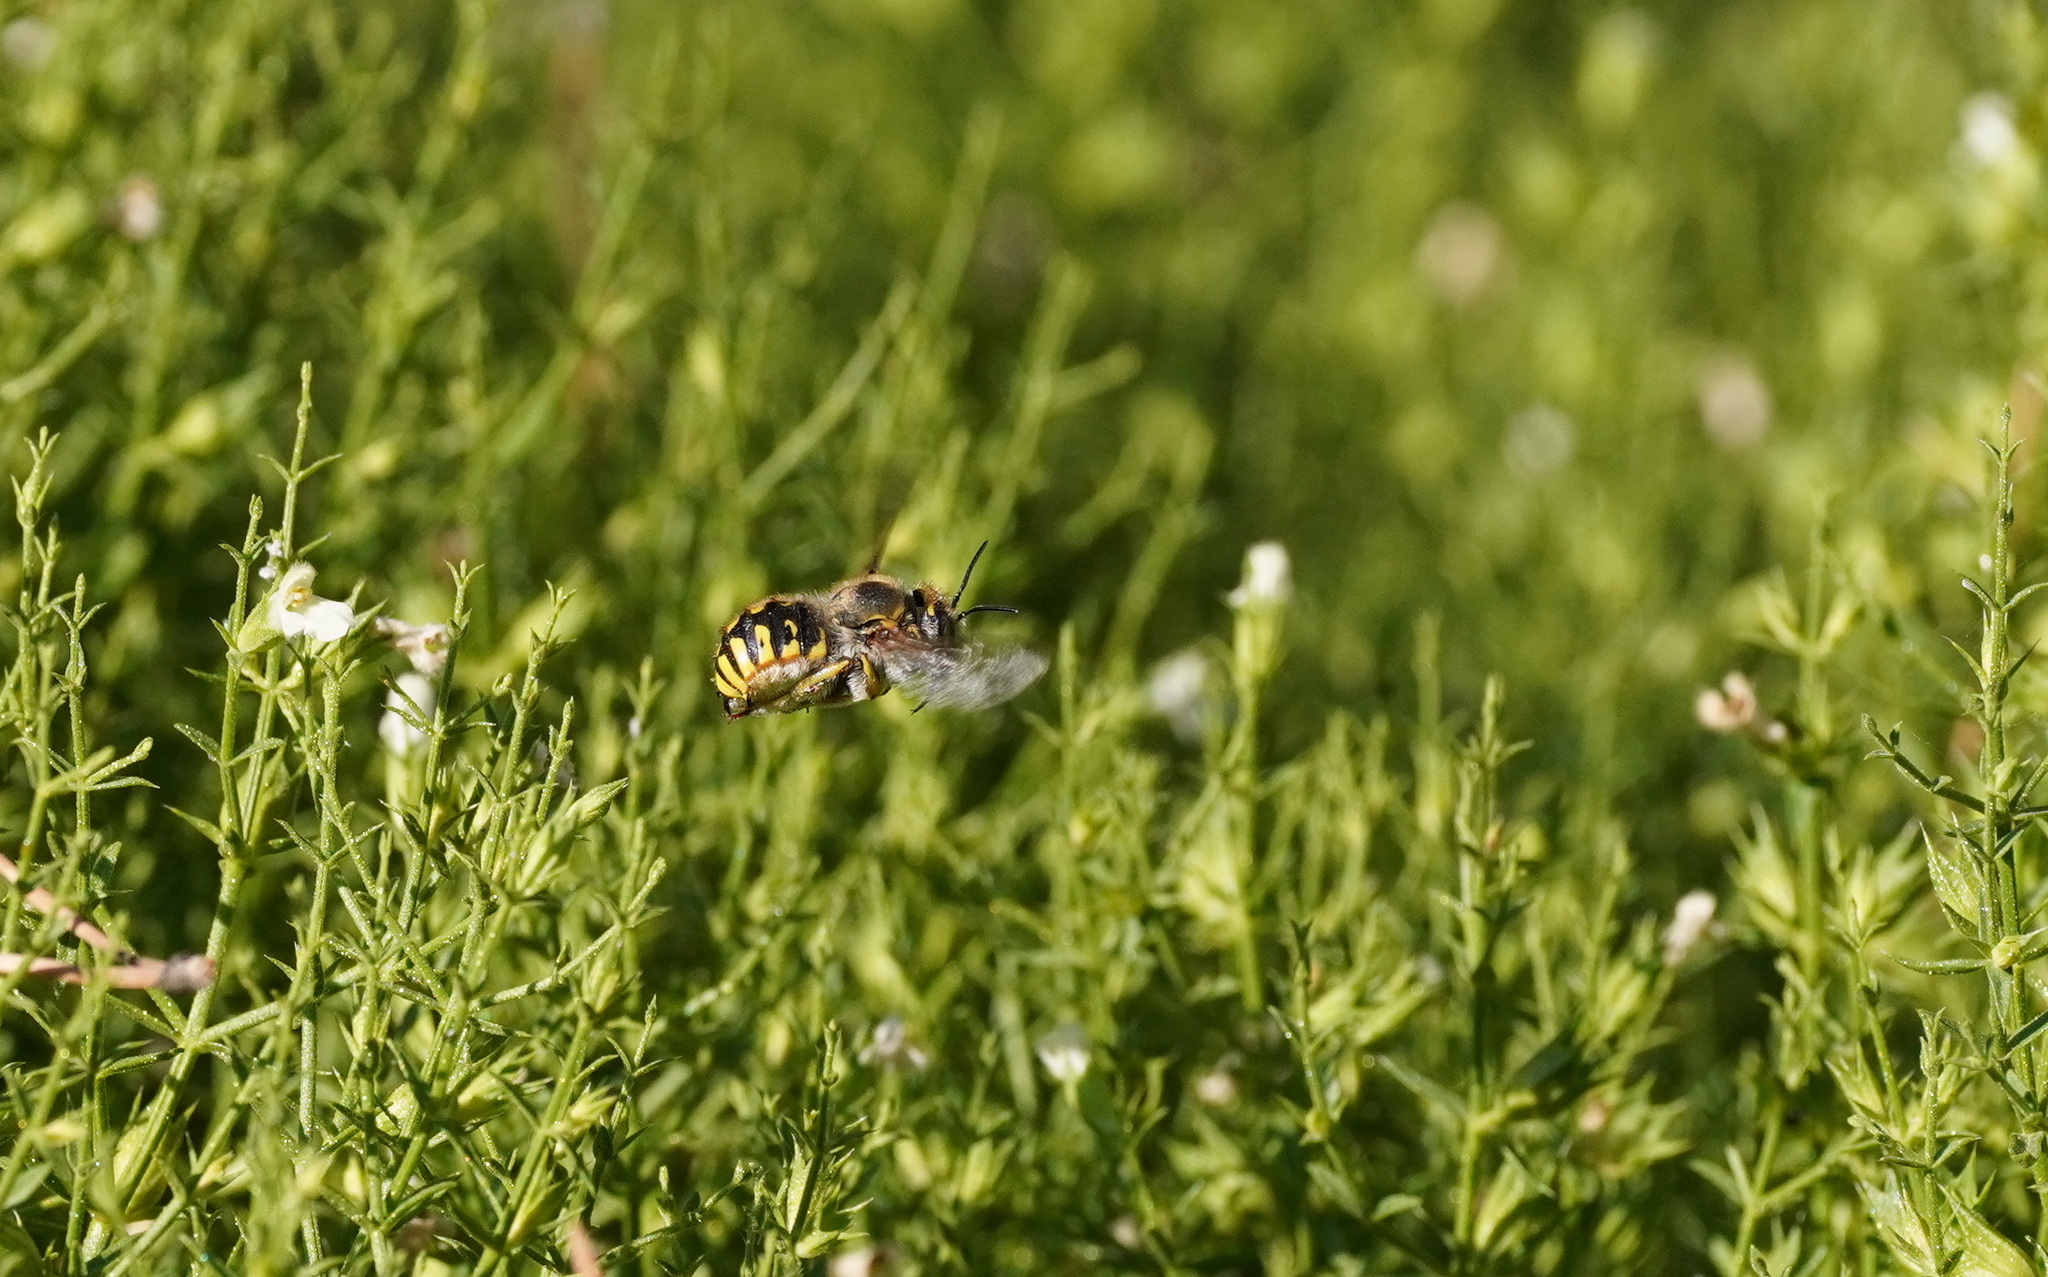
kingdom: Animalia
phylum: Arthropoda
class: Insecta
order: Hymenoptera
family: Megachilidae
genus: Anthidium
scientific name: Anthidium manicatum
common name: Wool carder bee
